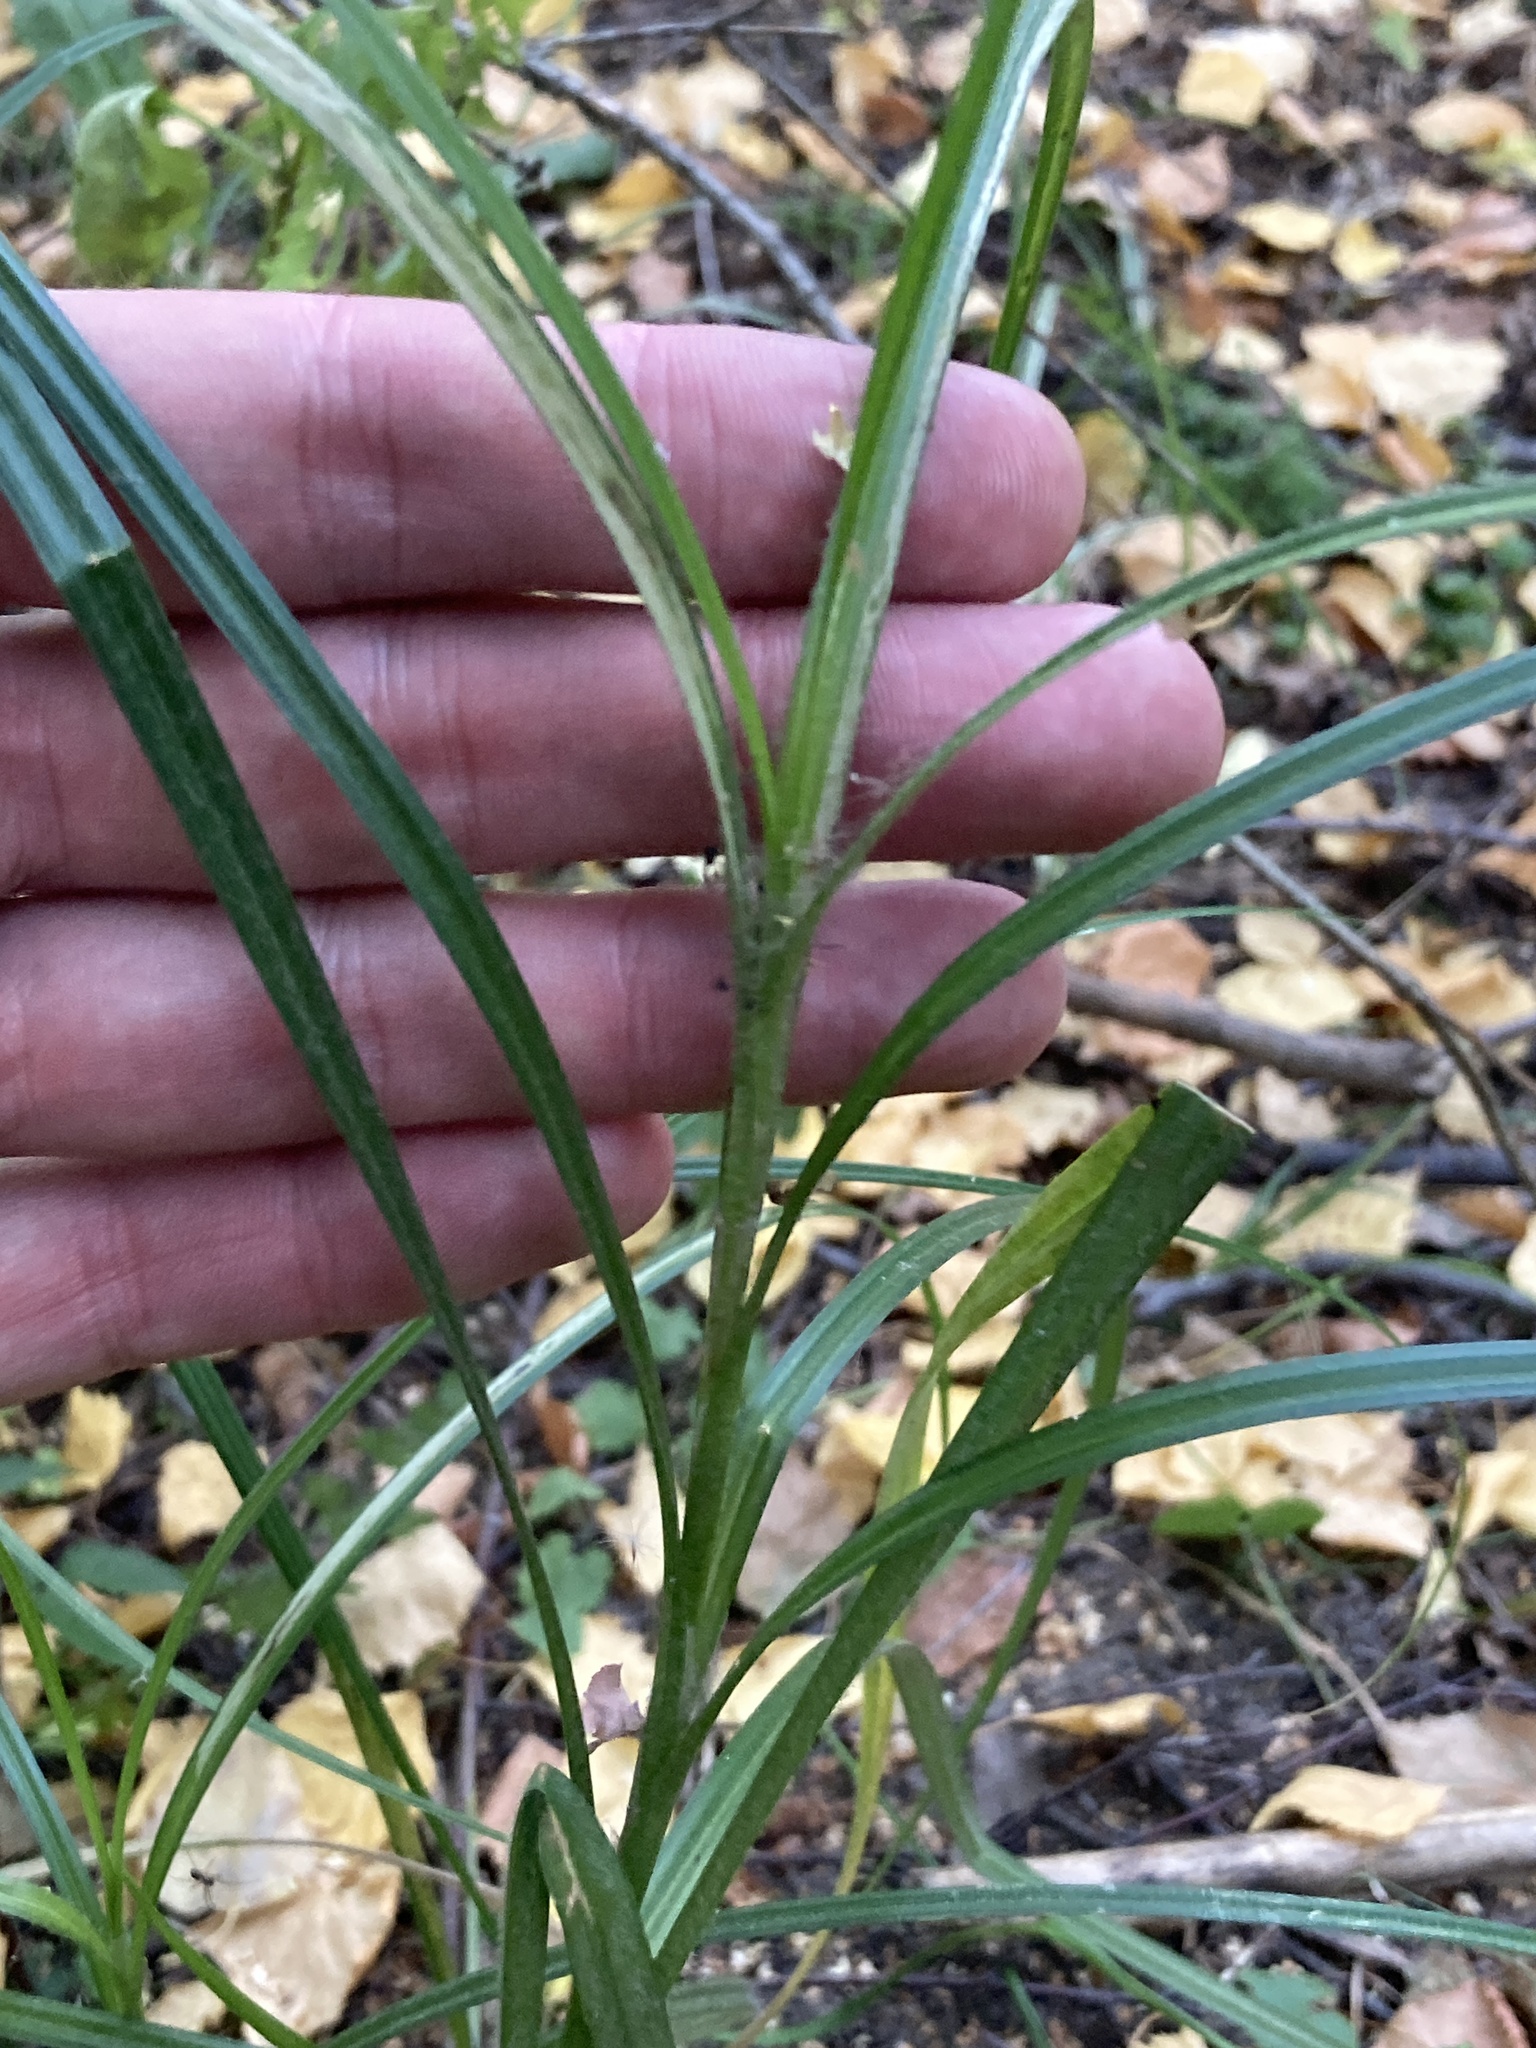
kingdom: Plantae
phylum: Tracheophyta
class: Liliopsida
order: Poales
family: Cyperaceae
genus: Carex
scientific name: Carex hirta
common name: Hairy sedge
